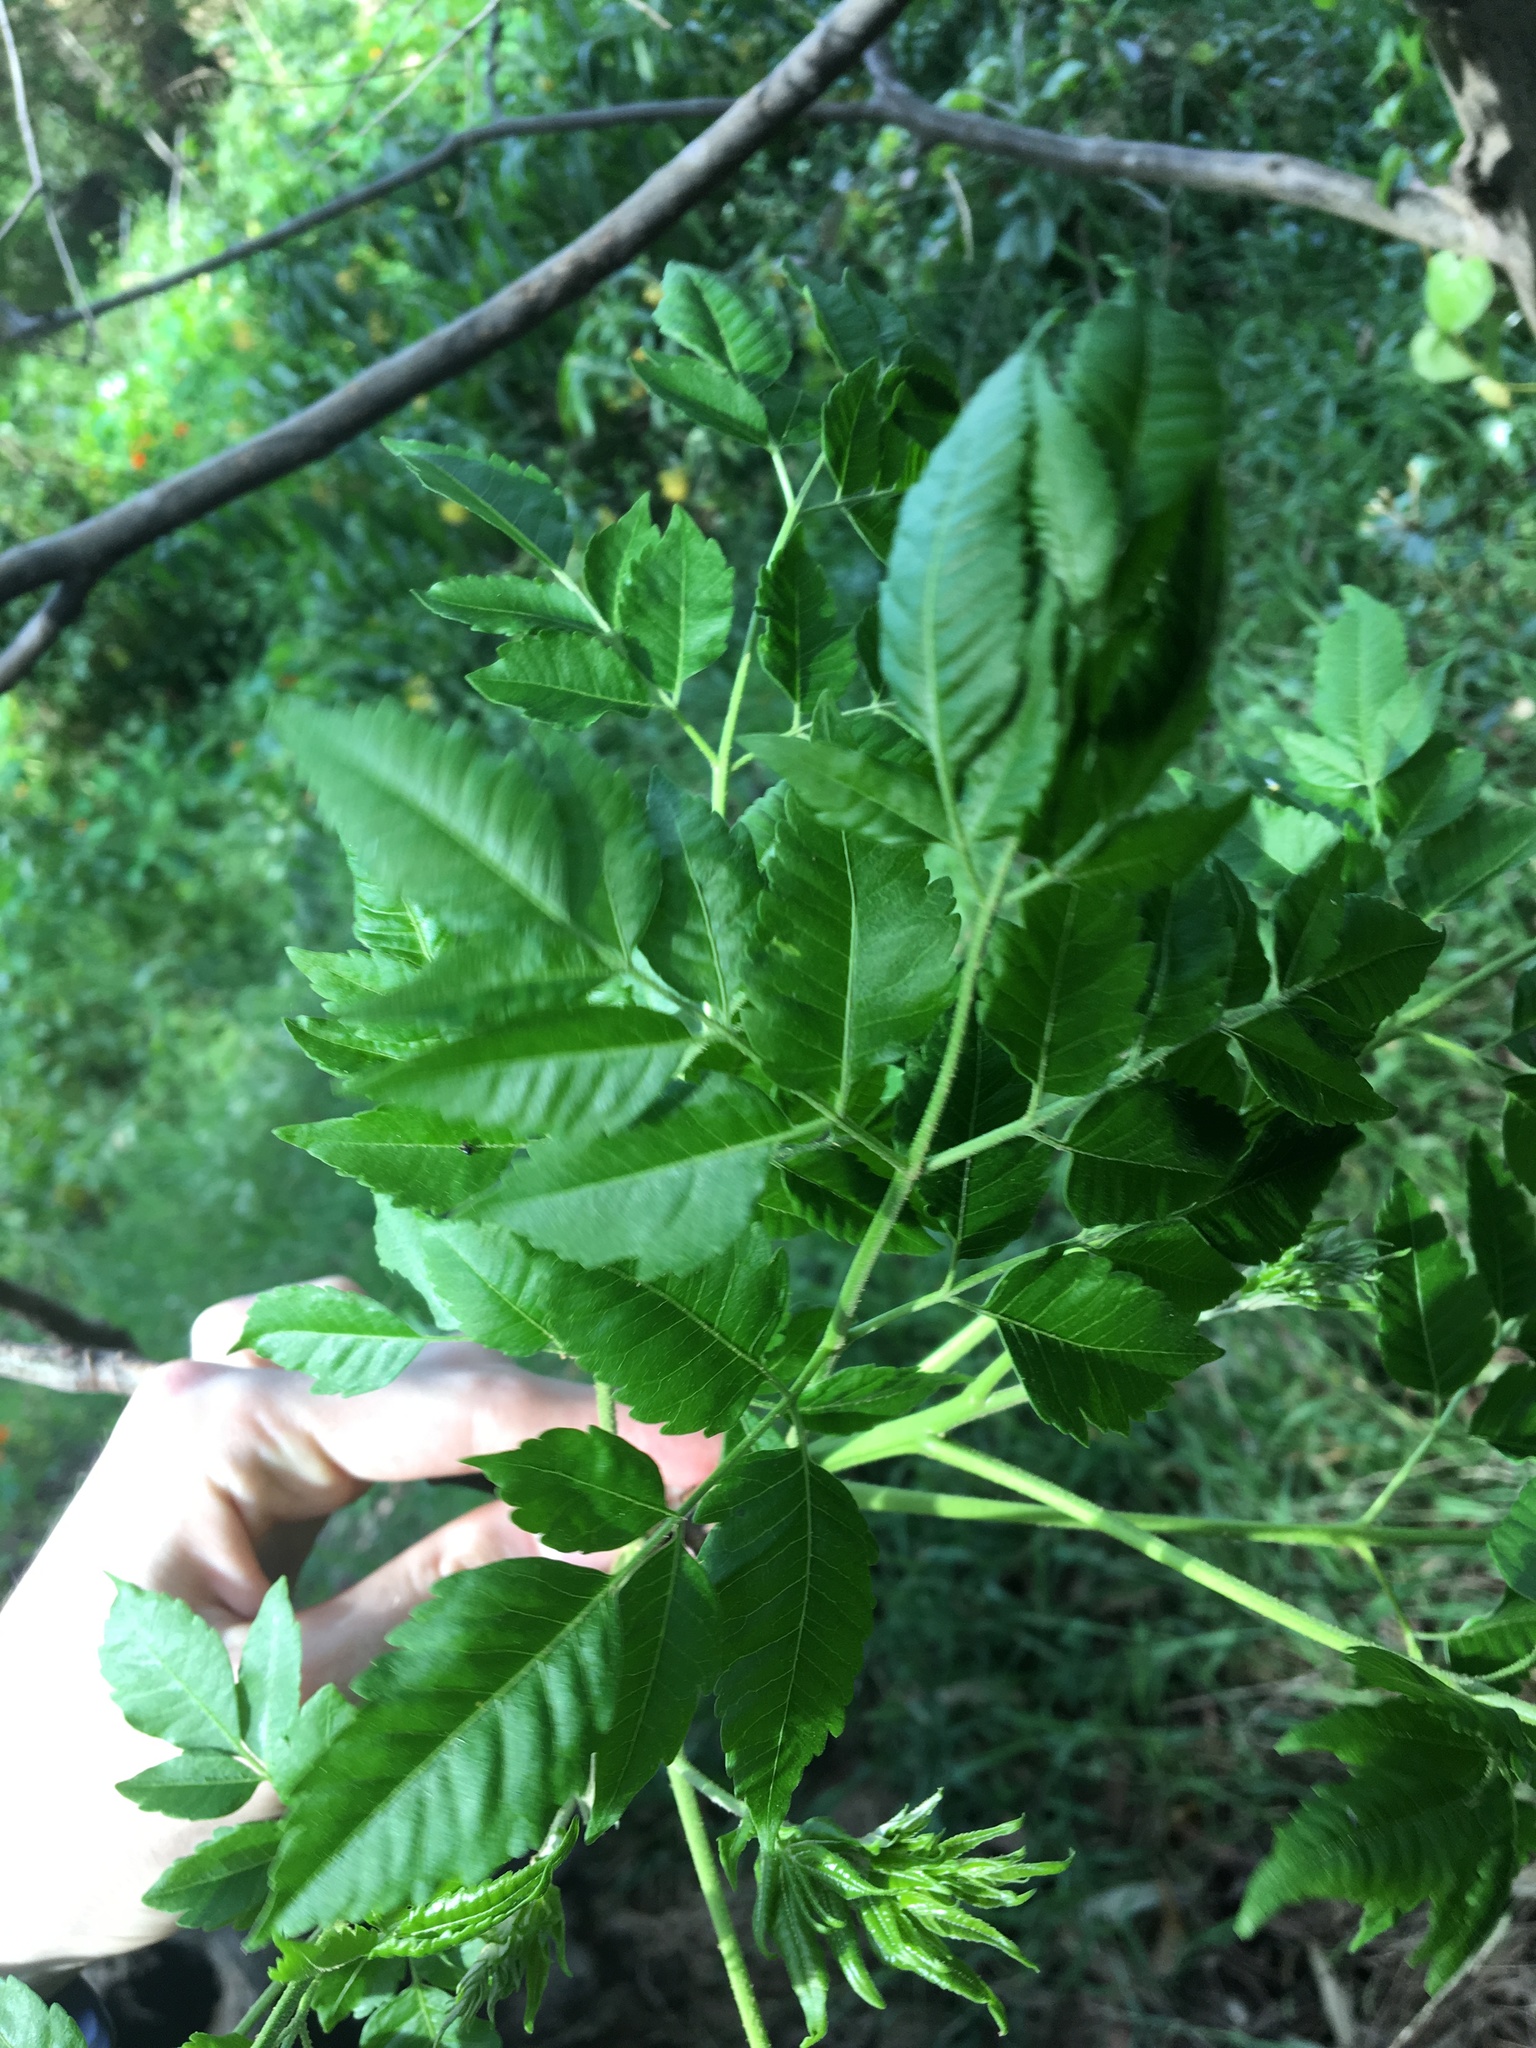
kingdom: Plantae
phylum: Tracheophyta
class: Magnoliopsida
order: Sapindales
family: Meliaceae
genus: Melia
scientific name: Melia azedarach
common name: Chinaberrytree
